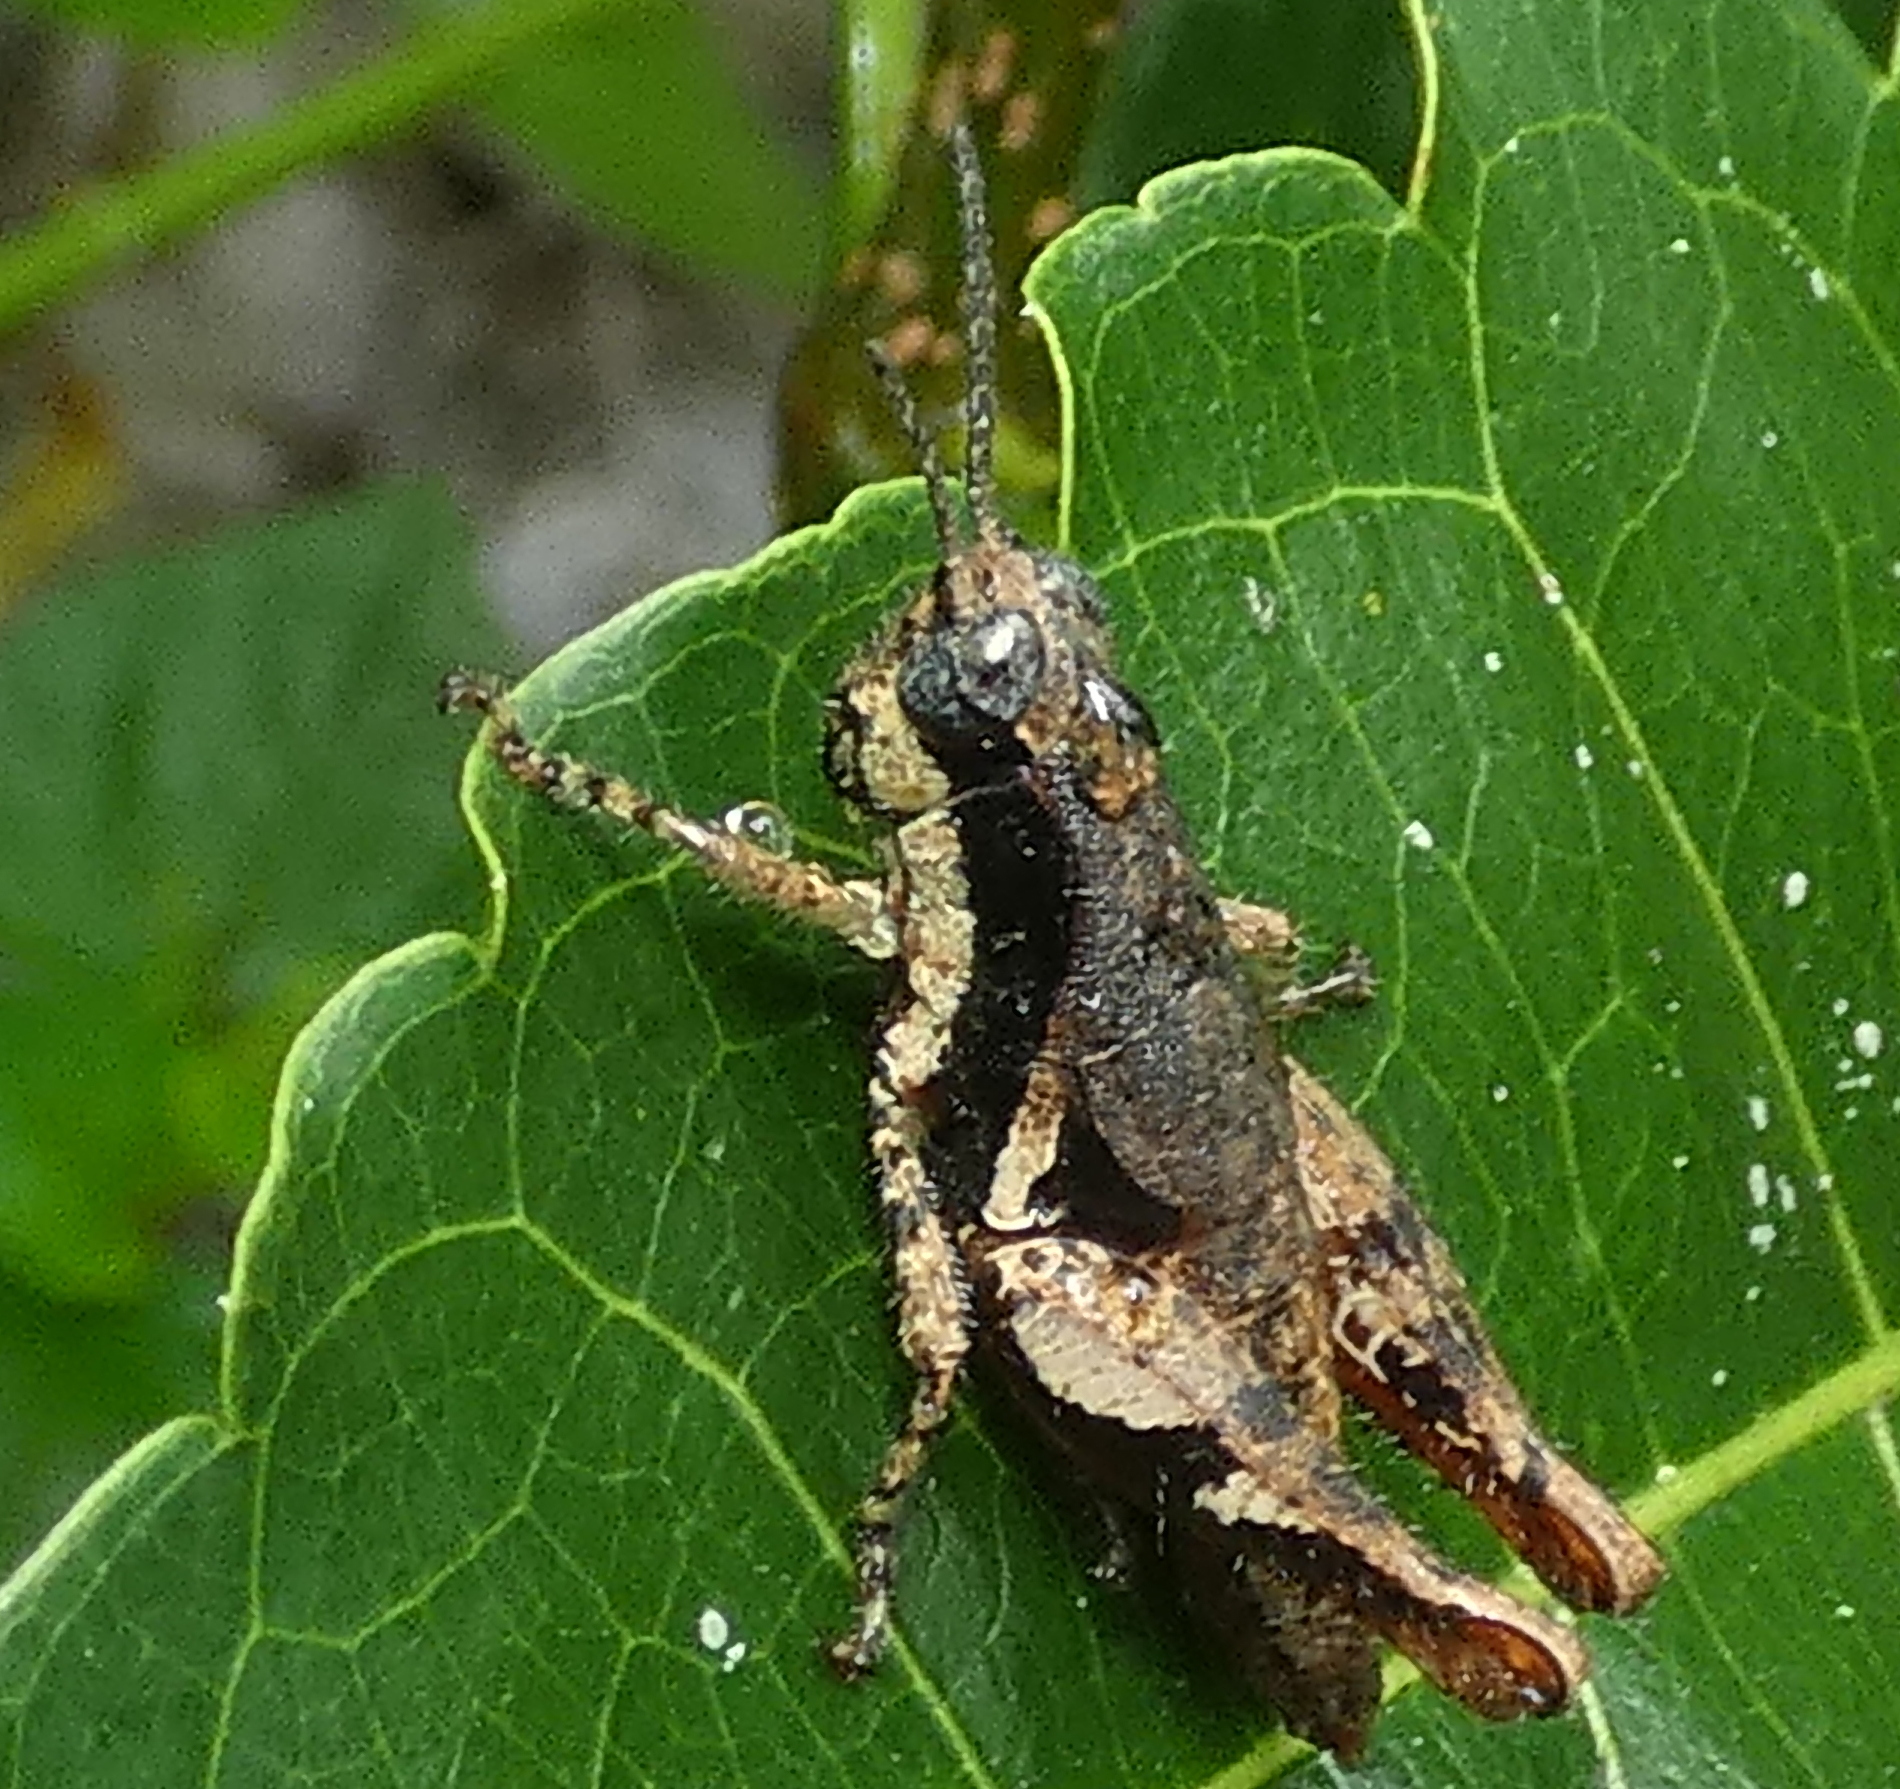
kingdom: Animalia
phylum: Arthropoda
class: Insecta
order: Orthoptera
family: Acrididae
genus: Eujivarus
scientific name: Eujivarus meridionalis
